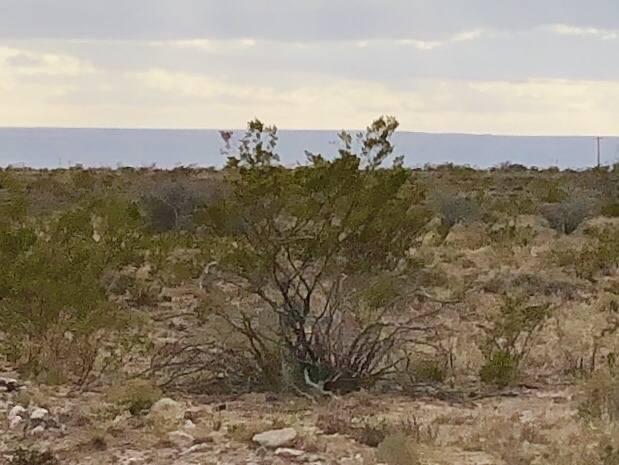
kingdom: Plantae
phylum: Tracheophyta
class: Magnoliopsida
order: Zygophyllales
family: Zygophyllaceae
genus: Larrea
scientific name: Larrea tridentata
